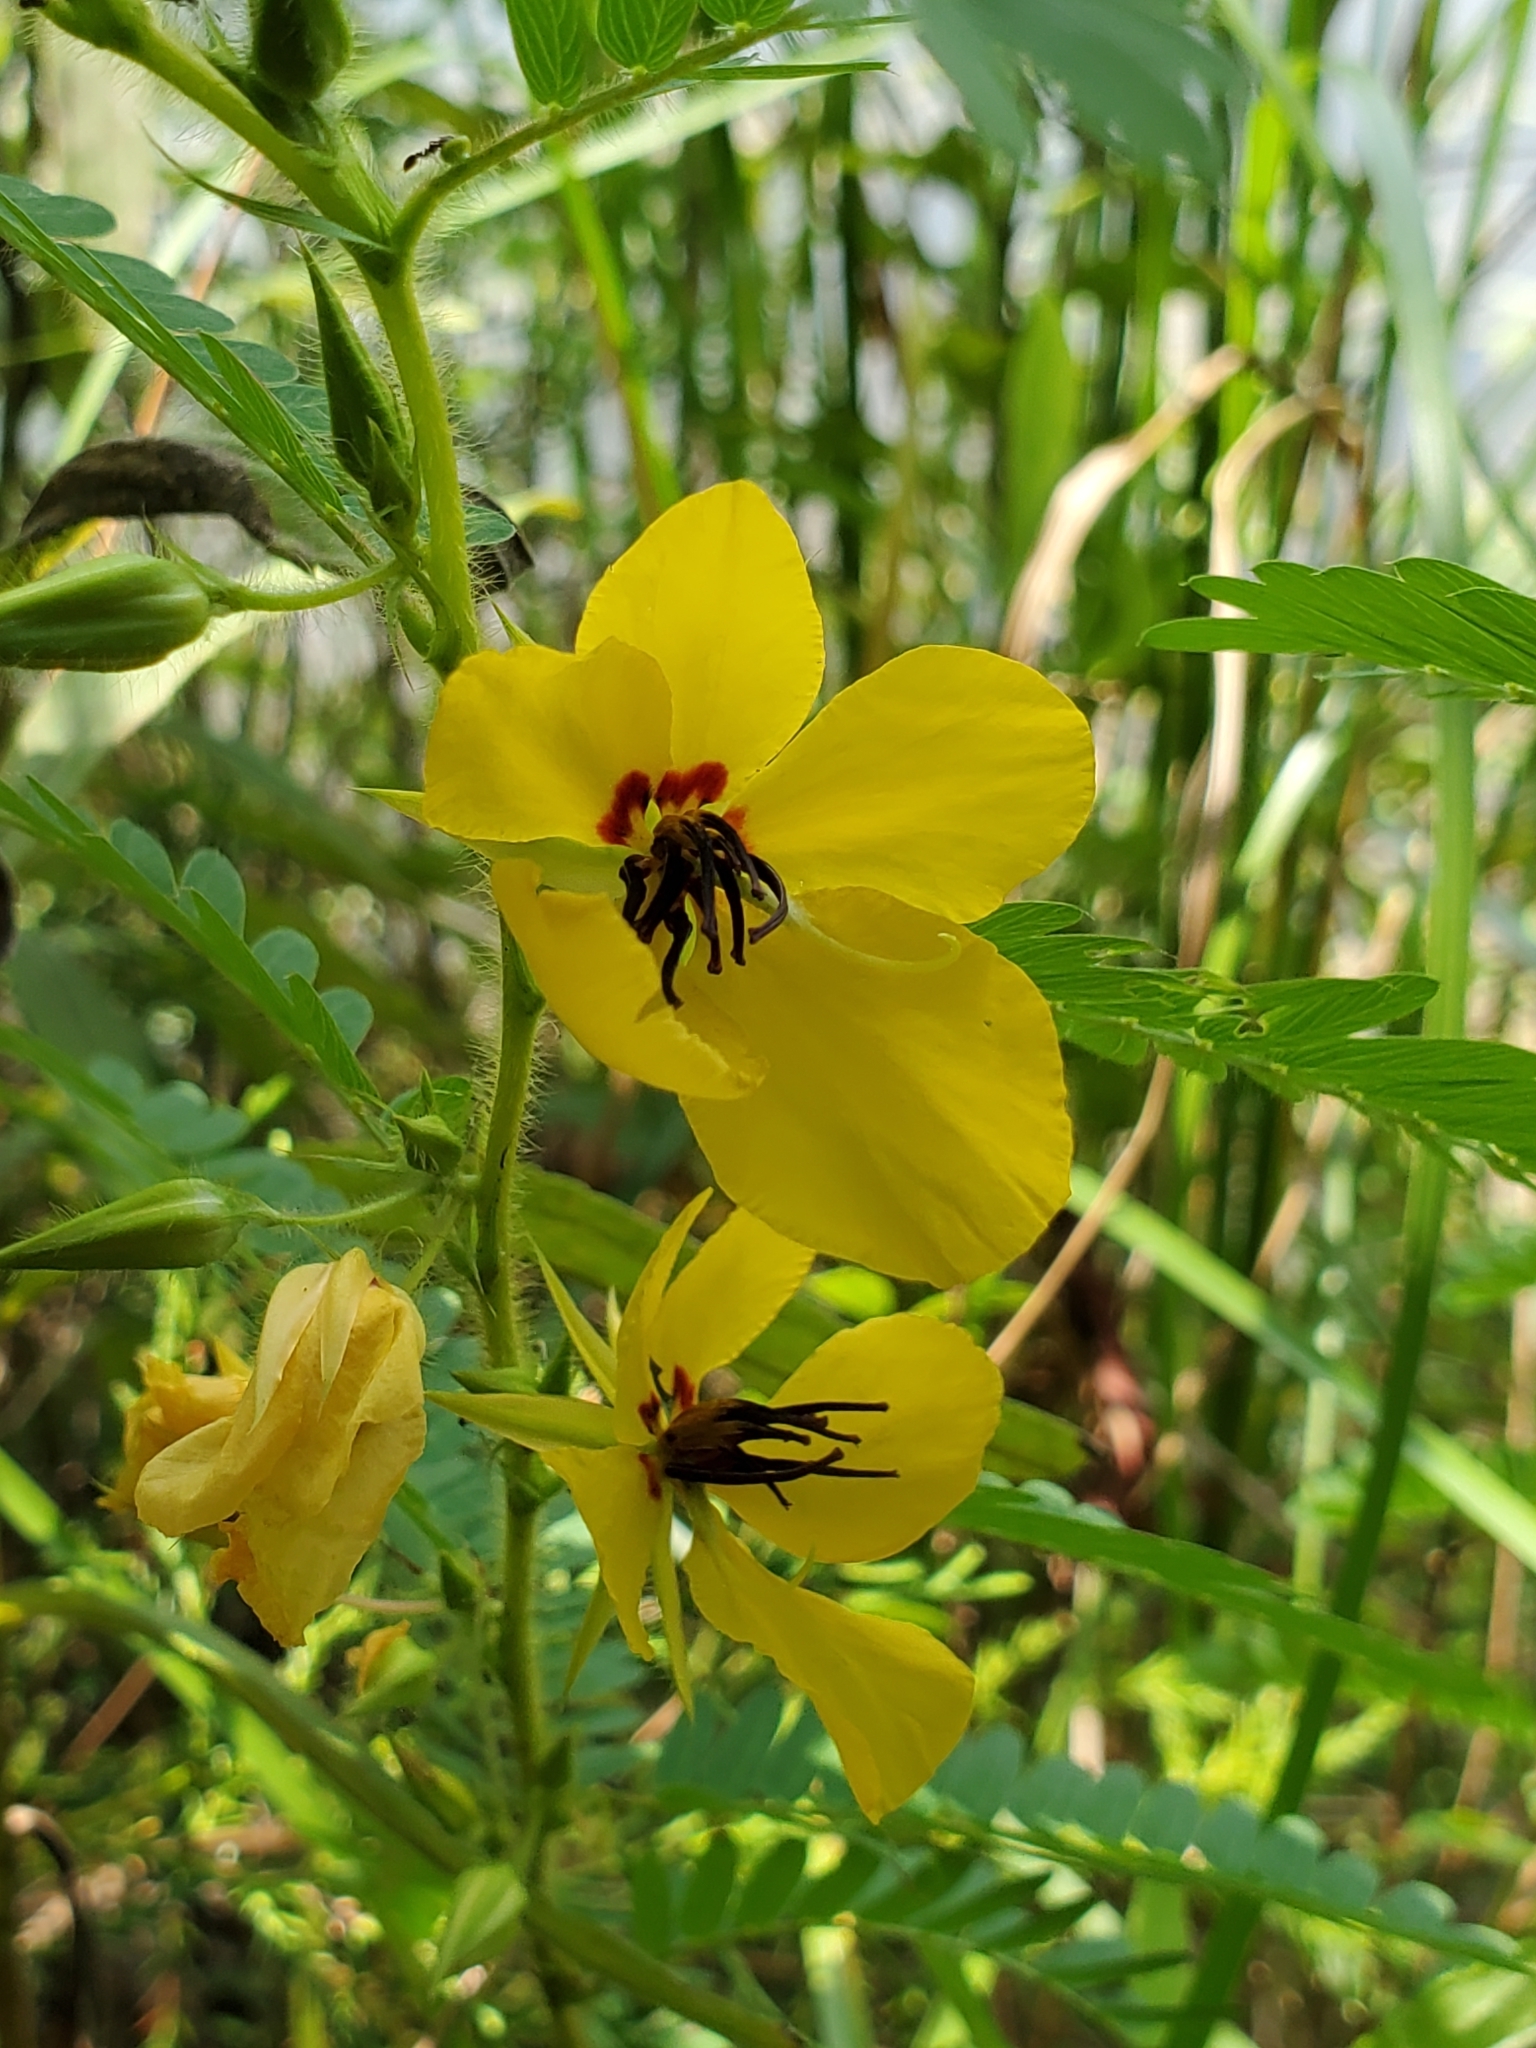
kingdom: Plantae
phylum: Tracheophyta
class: Magnoliopsida
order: Fabales
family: Fabaceae
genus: Chamaecrista
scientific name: Chamaecrista fasciculata
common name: Golden cassia
